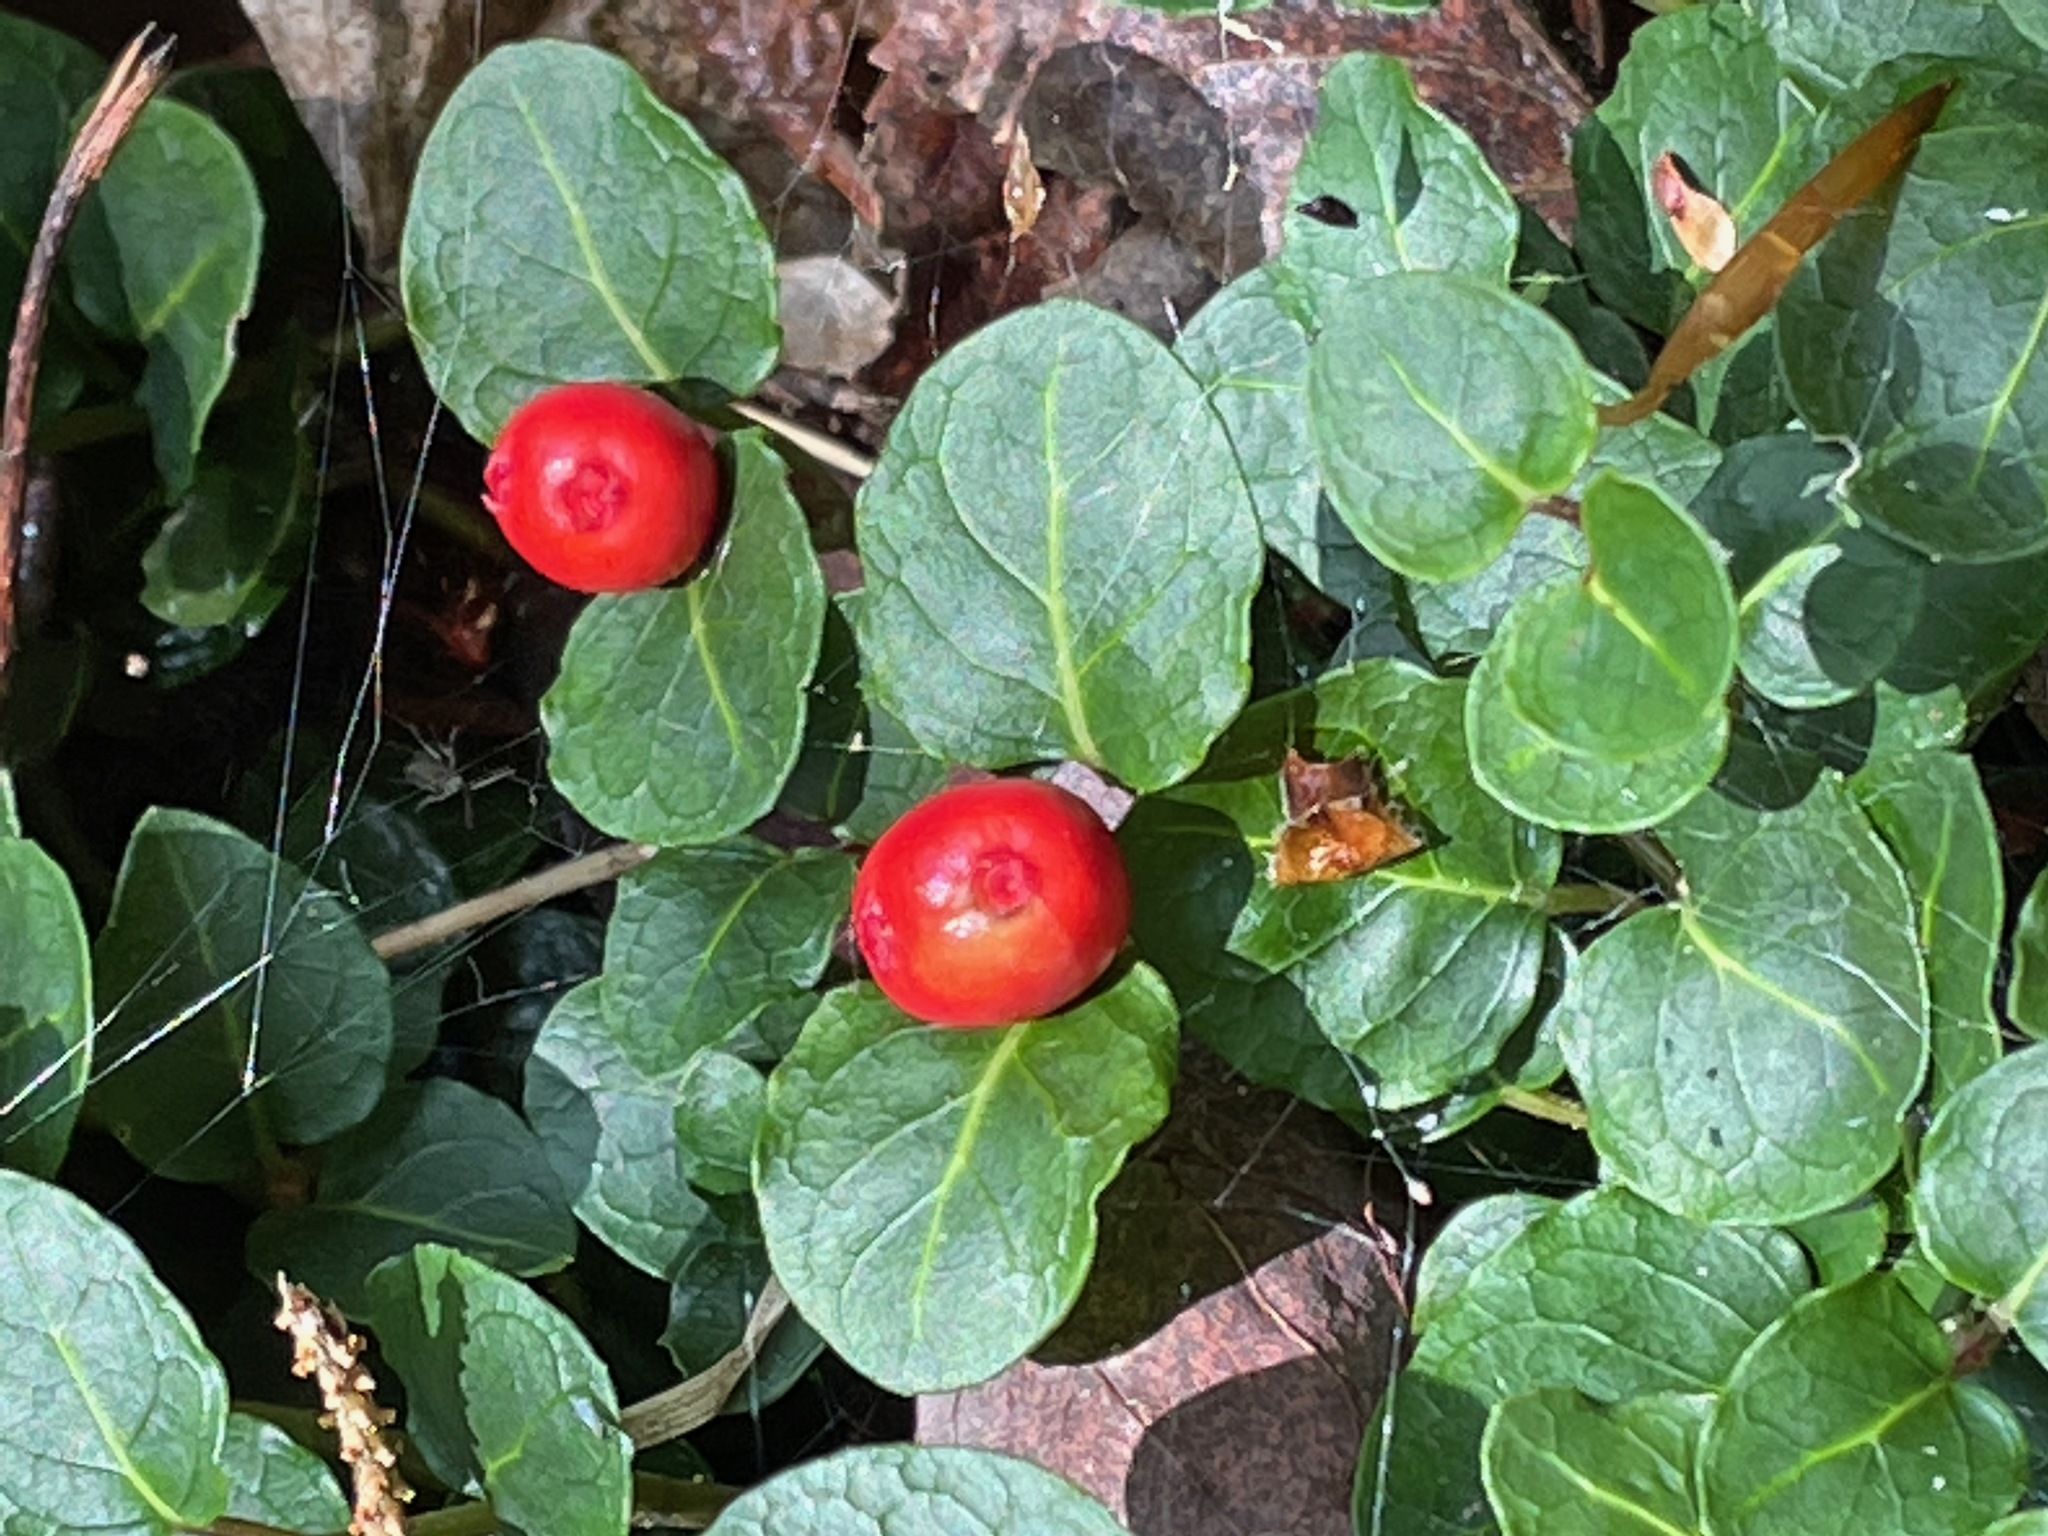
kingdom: Plantae
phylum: Tracheophyta
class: Magnoliopsida
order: Gentianales
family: Rubiaceae
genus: Mitchella
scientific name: Mitchella repens
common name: Partridge-berry
